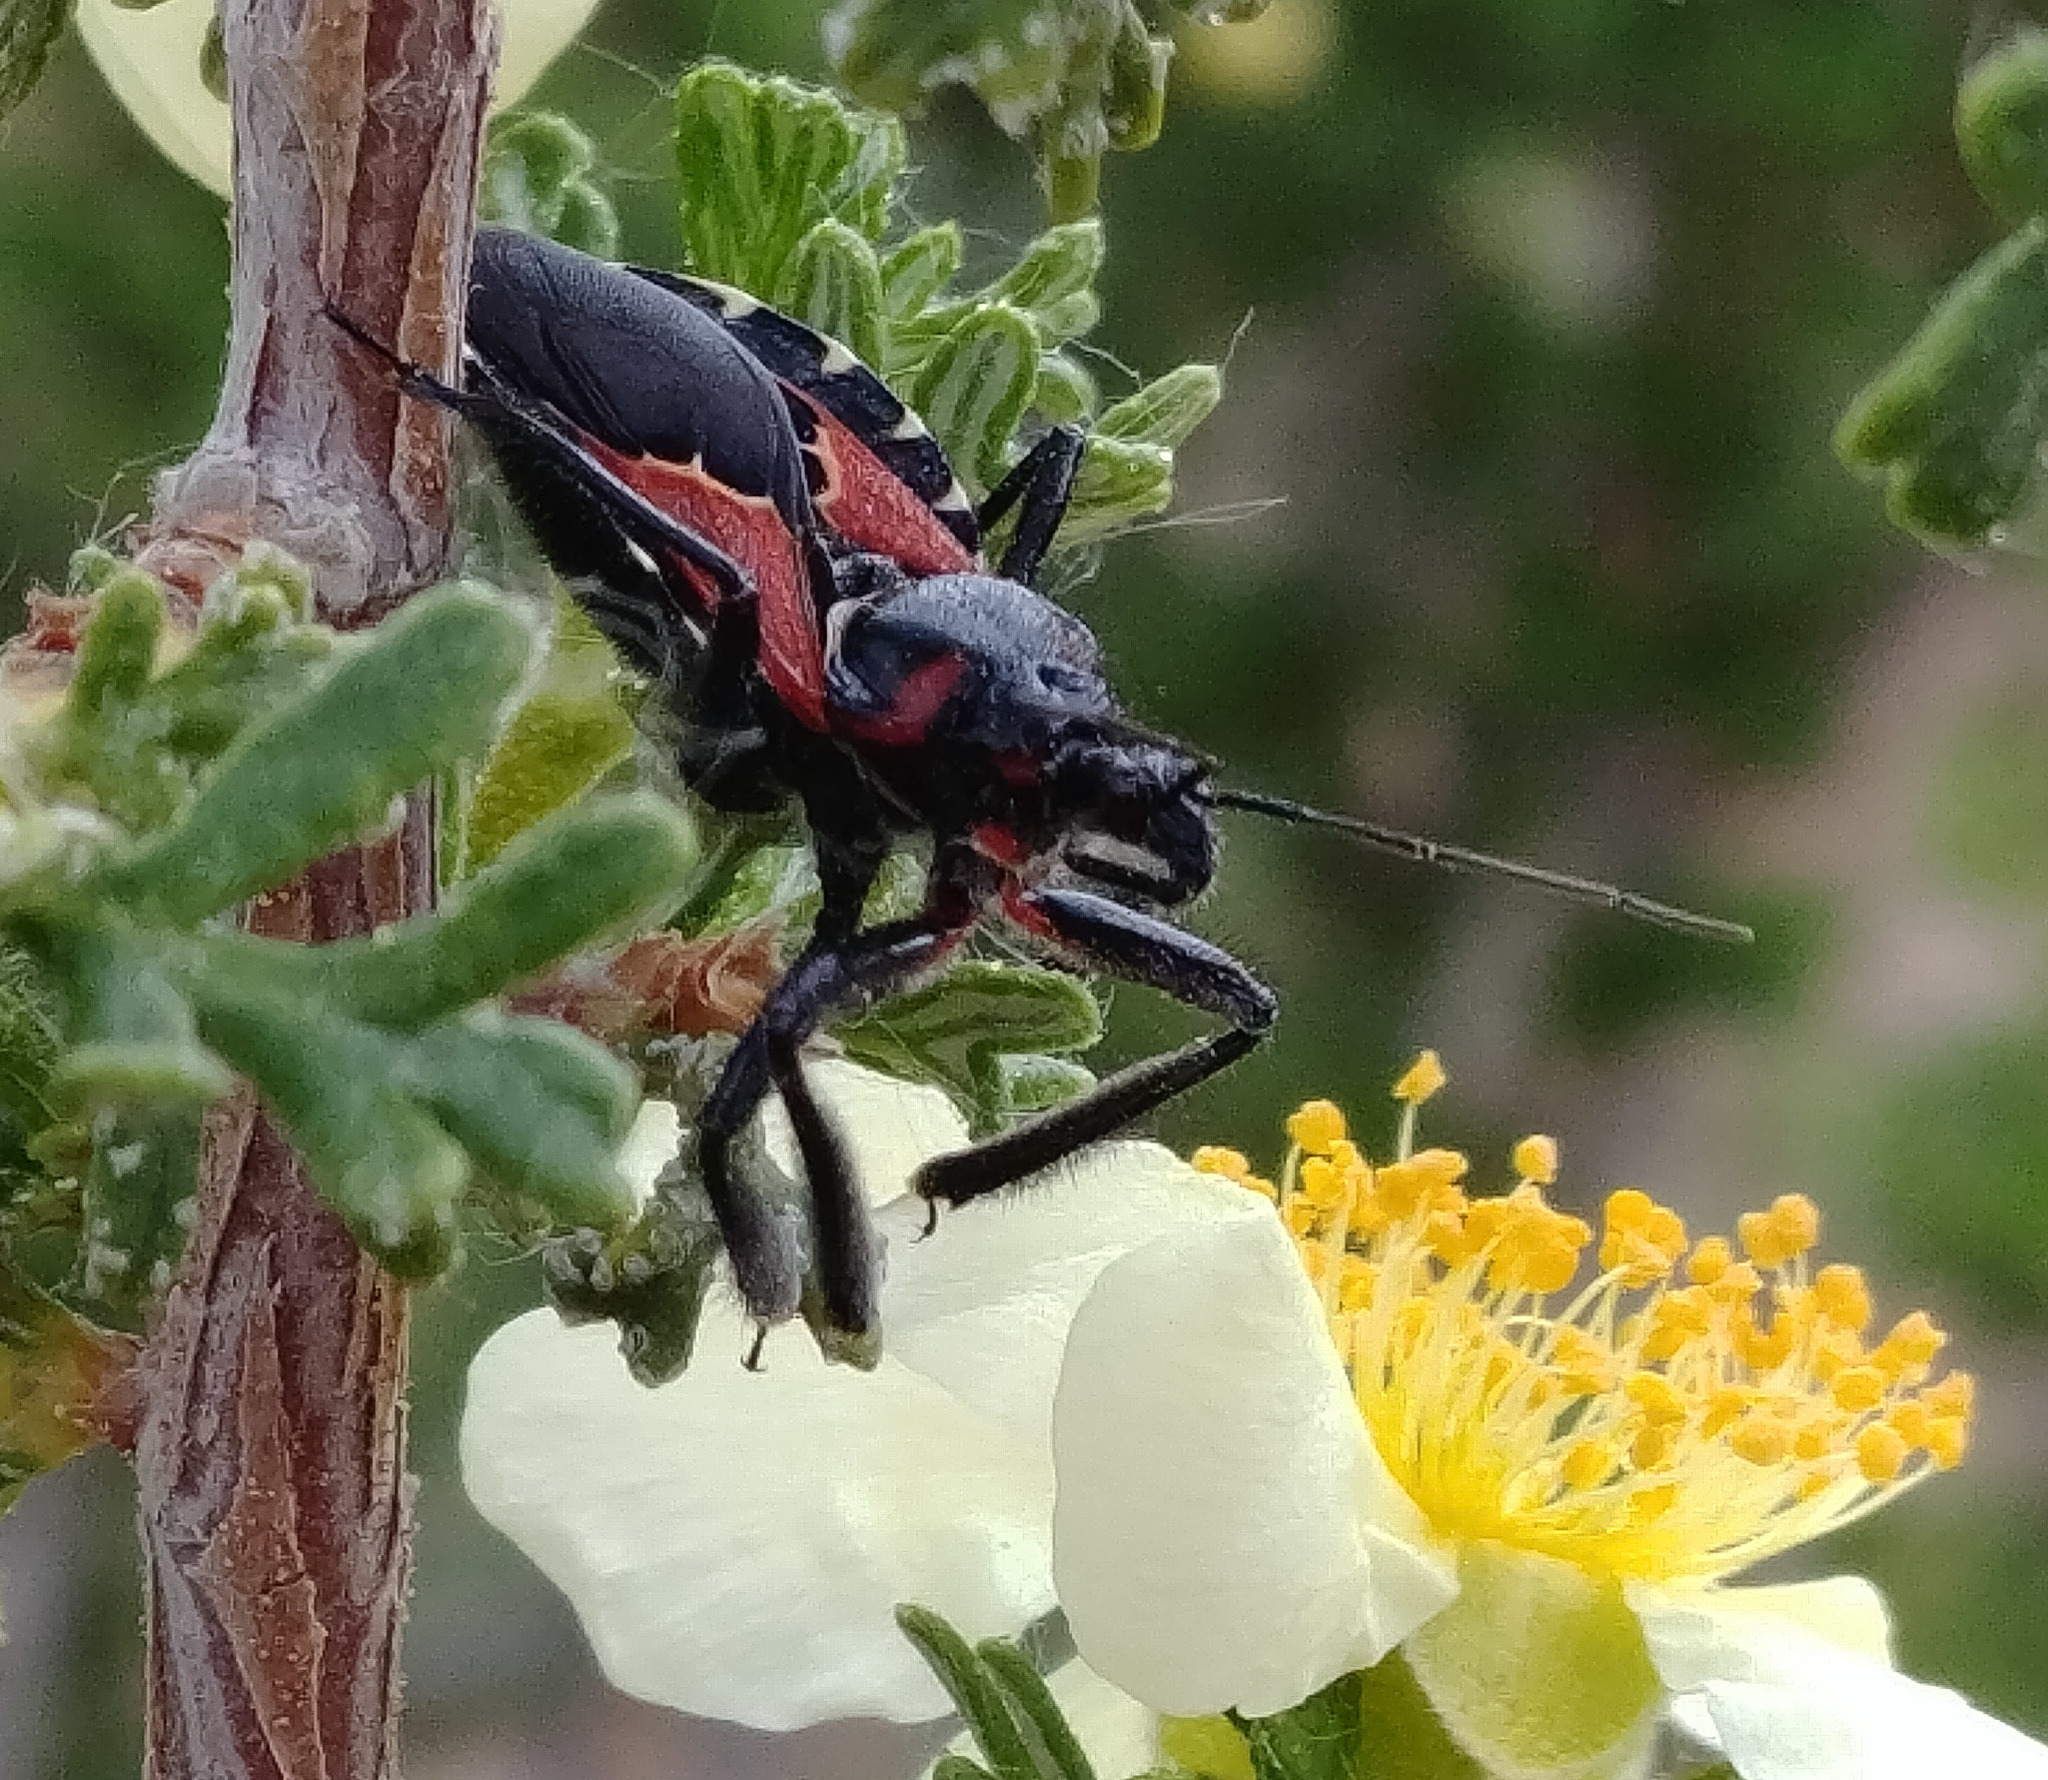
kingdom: Animalia
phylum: Arthropoda
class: Insecta
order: Hemiptera
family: Reduviidae
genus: Apiomerus
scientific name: Apiomerus montanus
